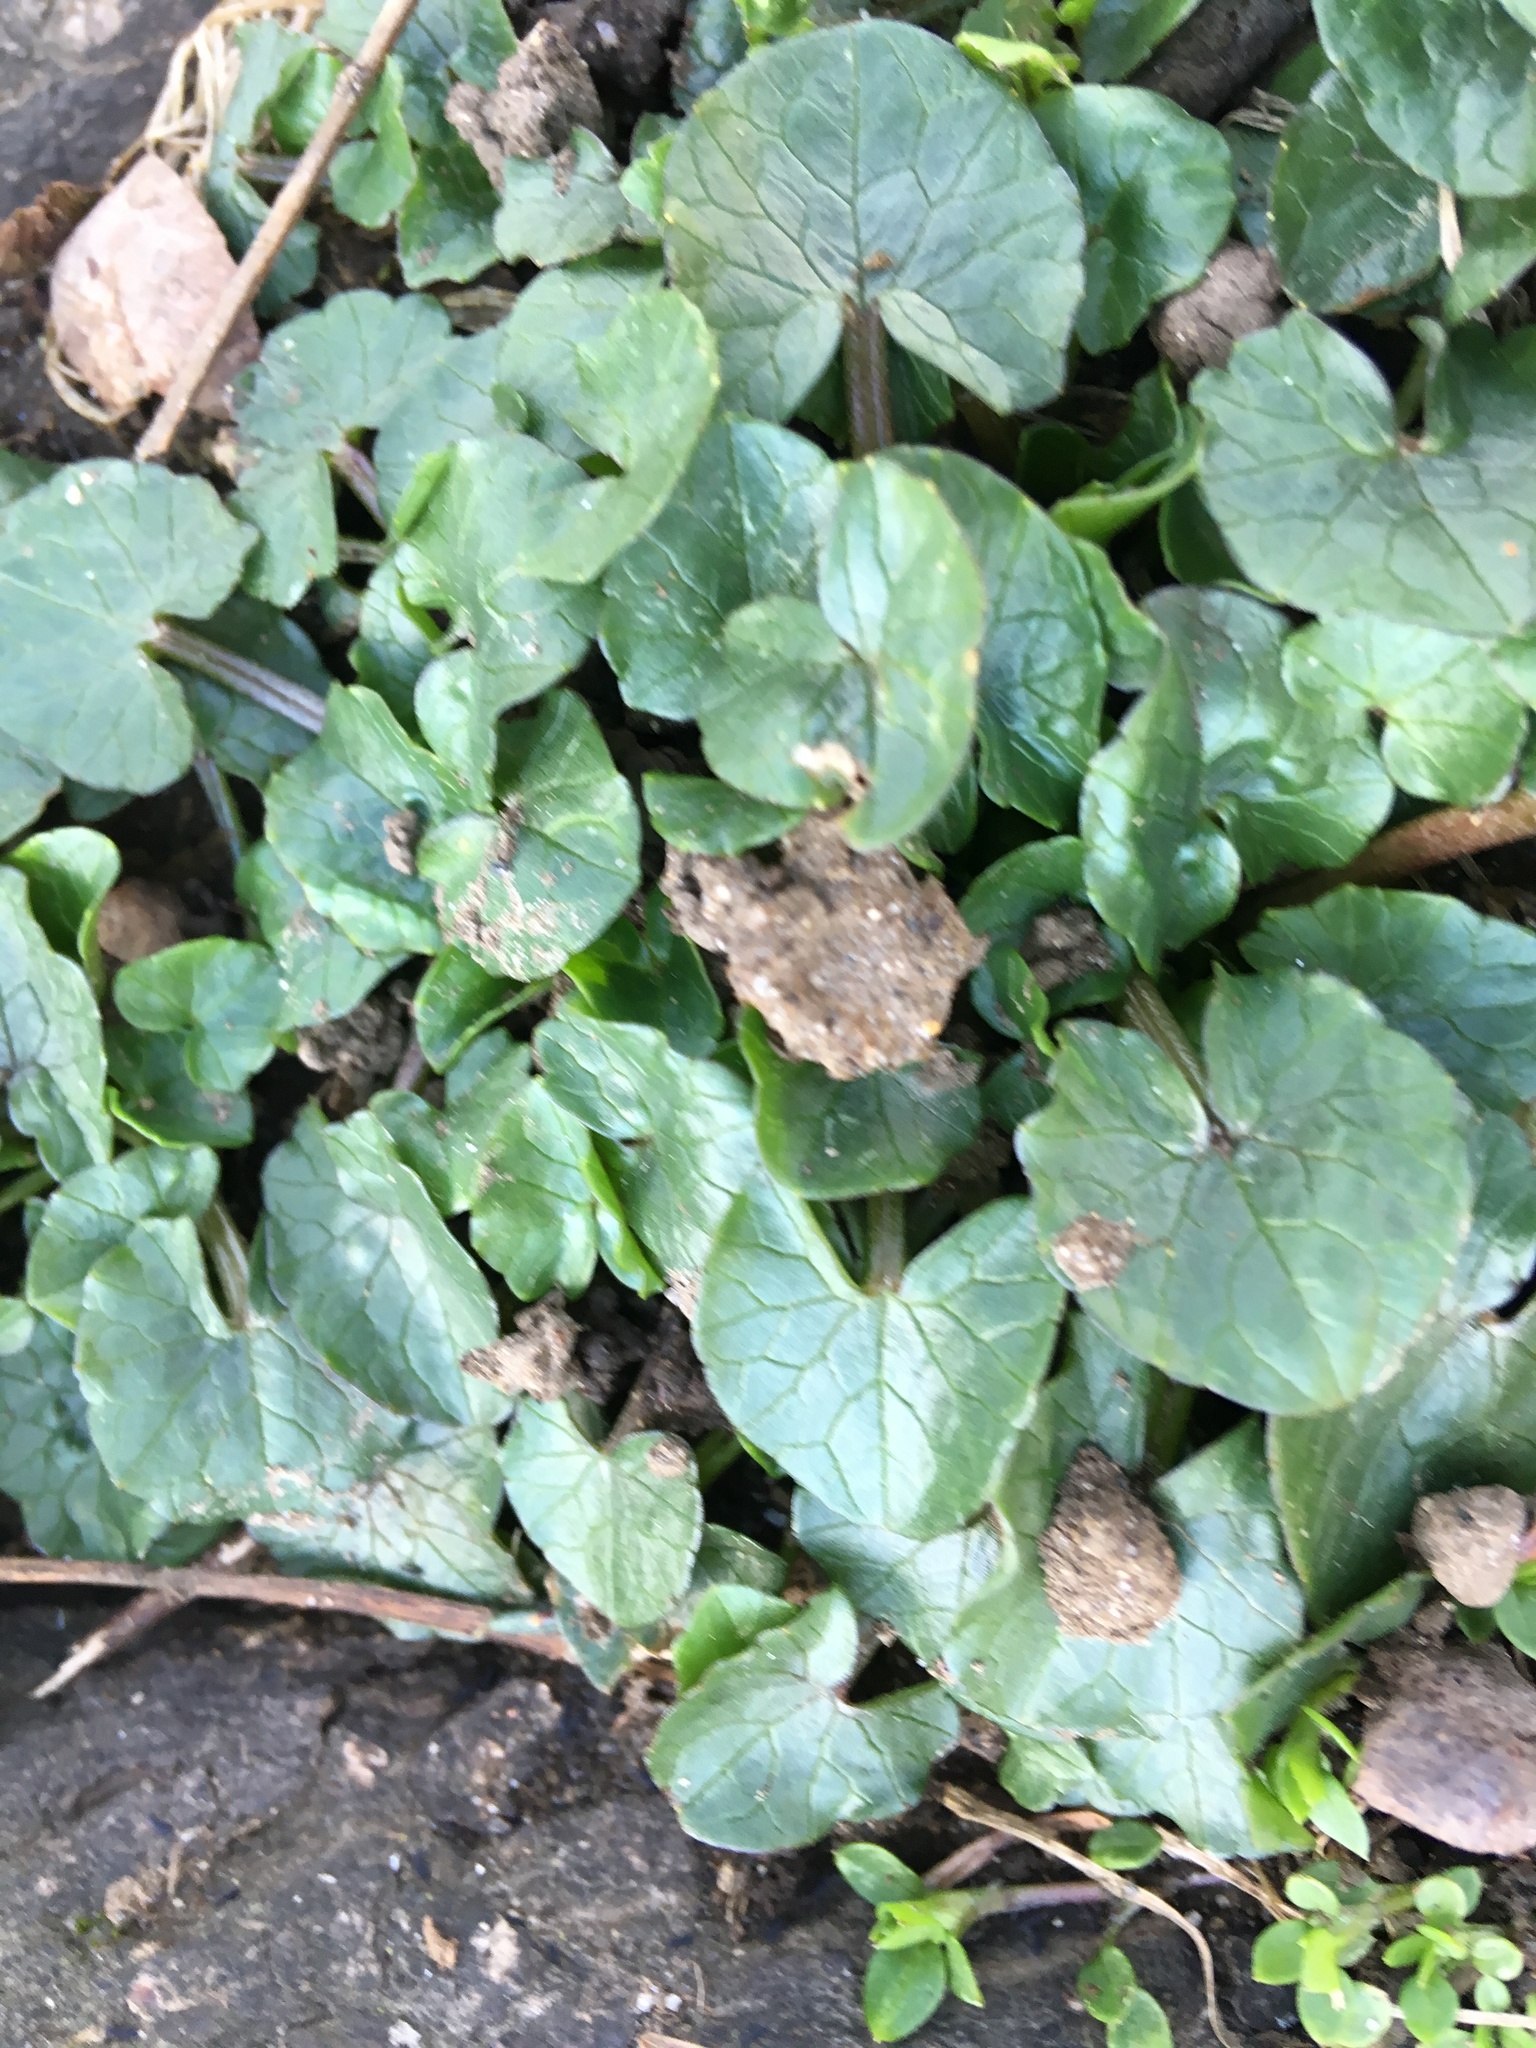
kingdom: Plantae
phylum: Tracheophyta
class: Magnoliopsida
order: Ranunculales
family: Ranunculaceae
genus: Ficaria
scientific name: Ficaria verna
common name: Lesser celandine
